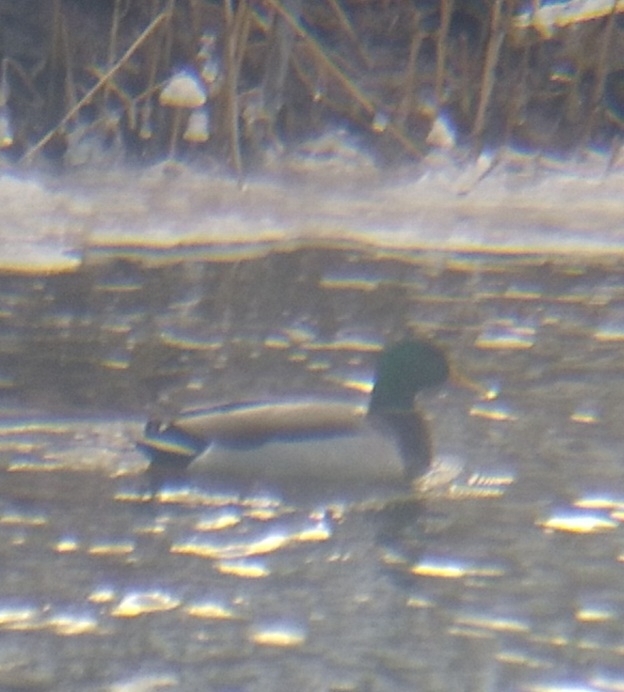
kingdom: Animalia
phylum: Chordata
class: Aves
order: Anseriformes
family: Anatidae
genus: Anas
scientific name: Anas platyrhynchos
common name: Mallard
